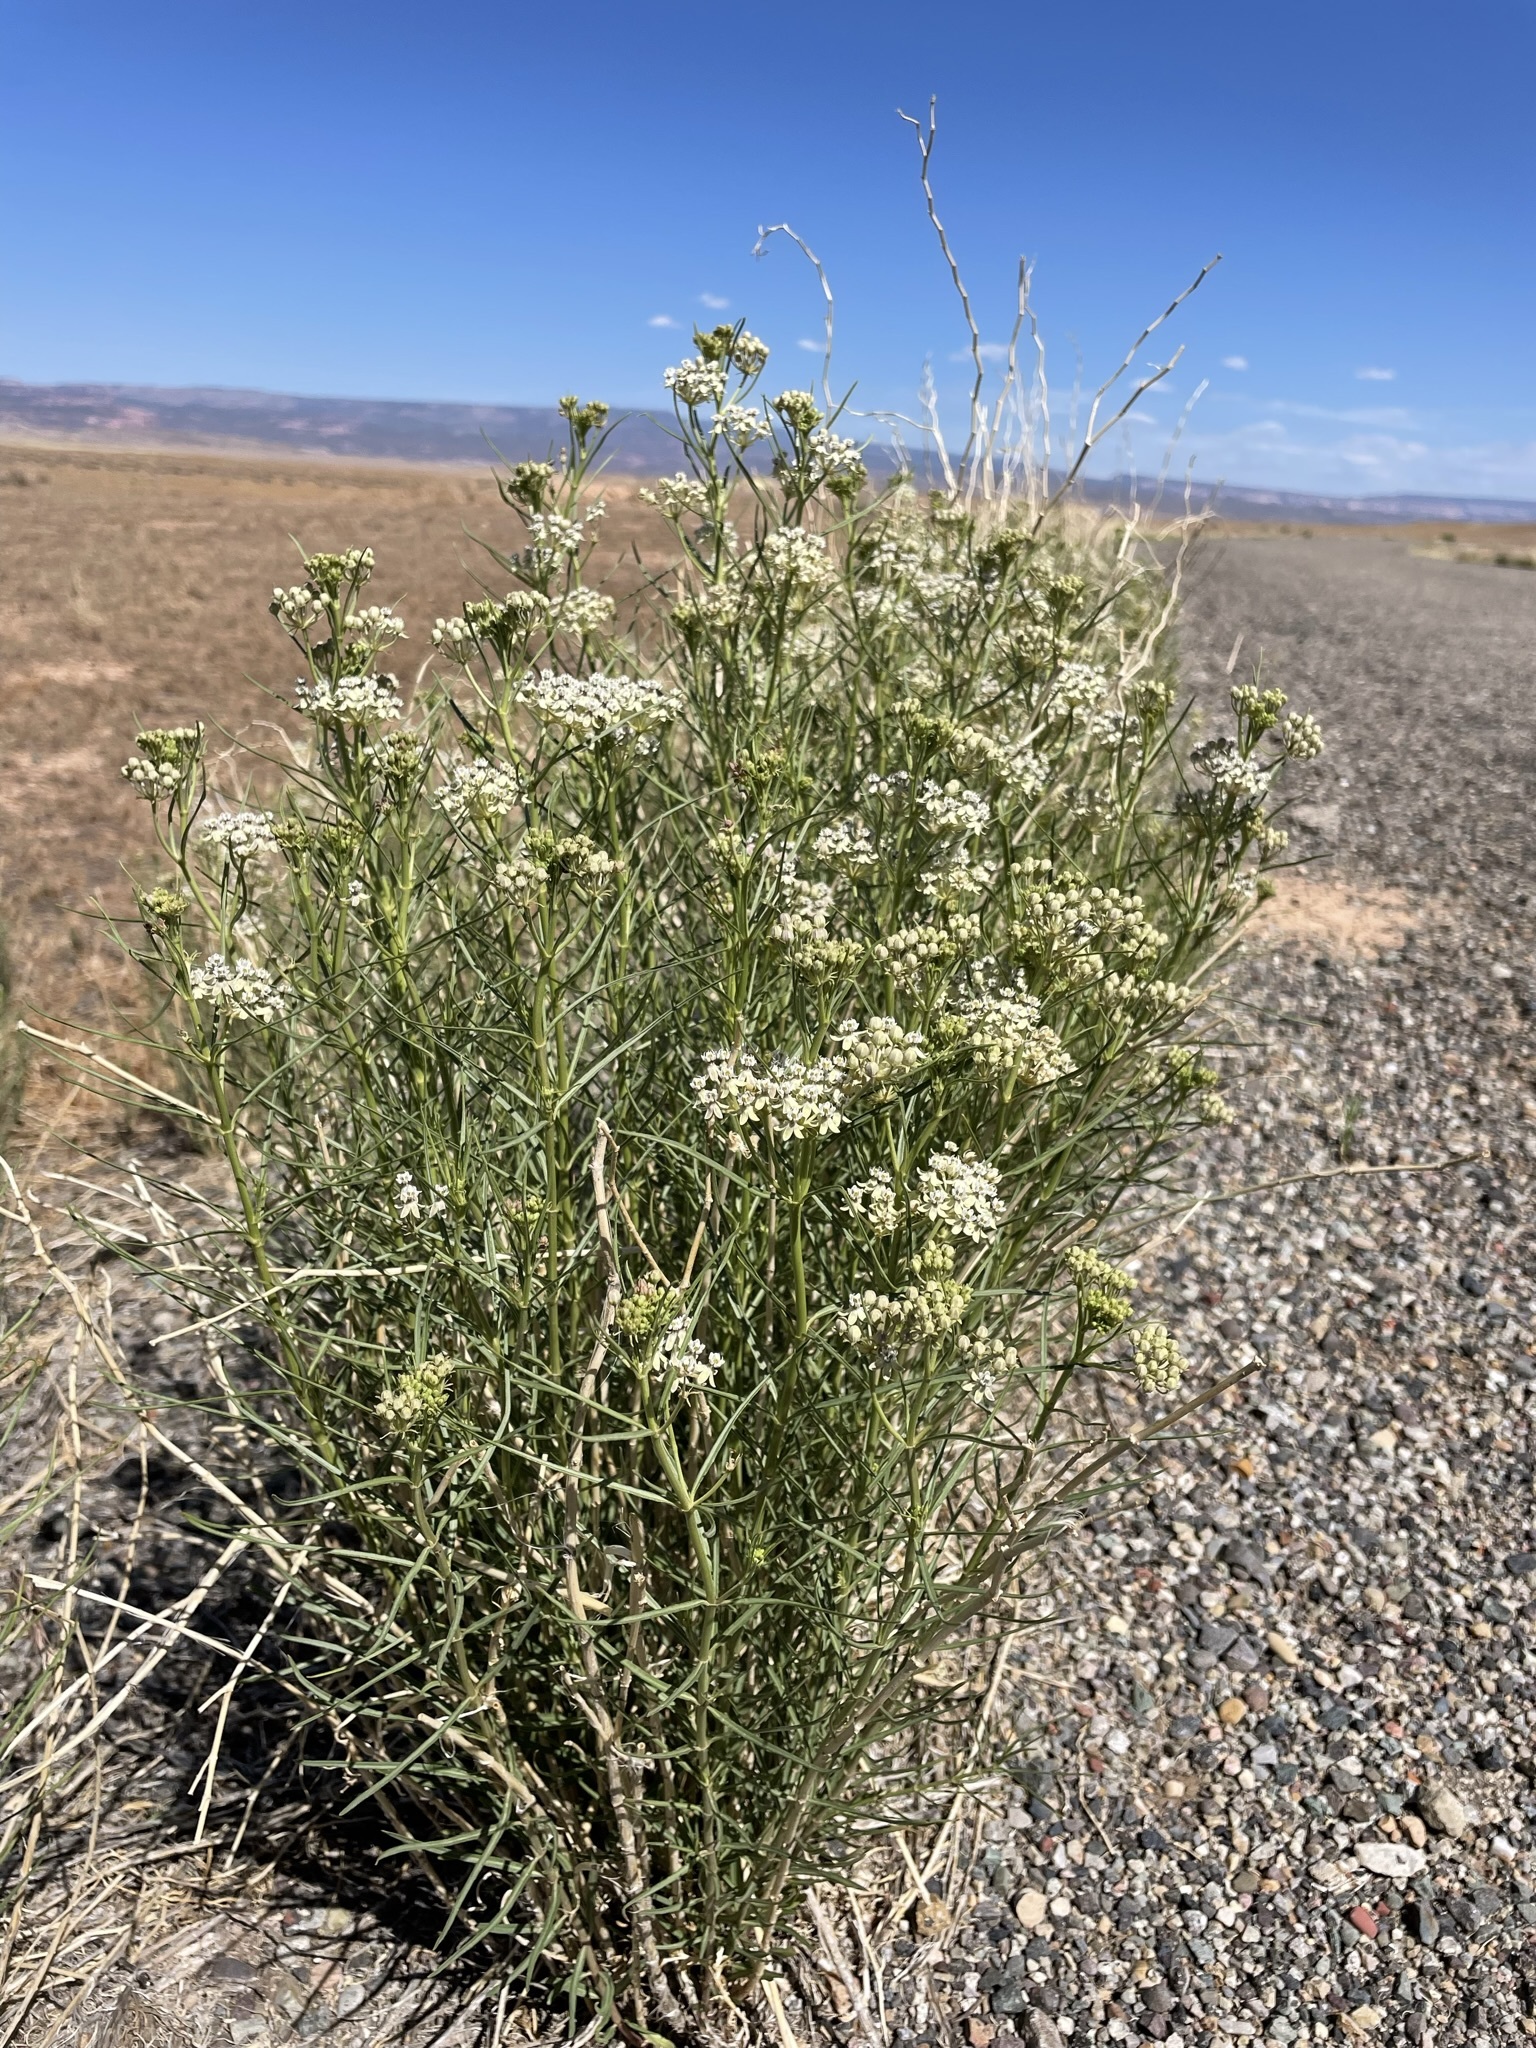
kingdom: Plantae
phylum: Tracheophyta
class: Magnoliopsida
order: Gentianales
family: Apocynaceae
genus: Asclepias
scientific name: Asclepias subverticillata
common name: Horsetail milkweed
